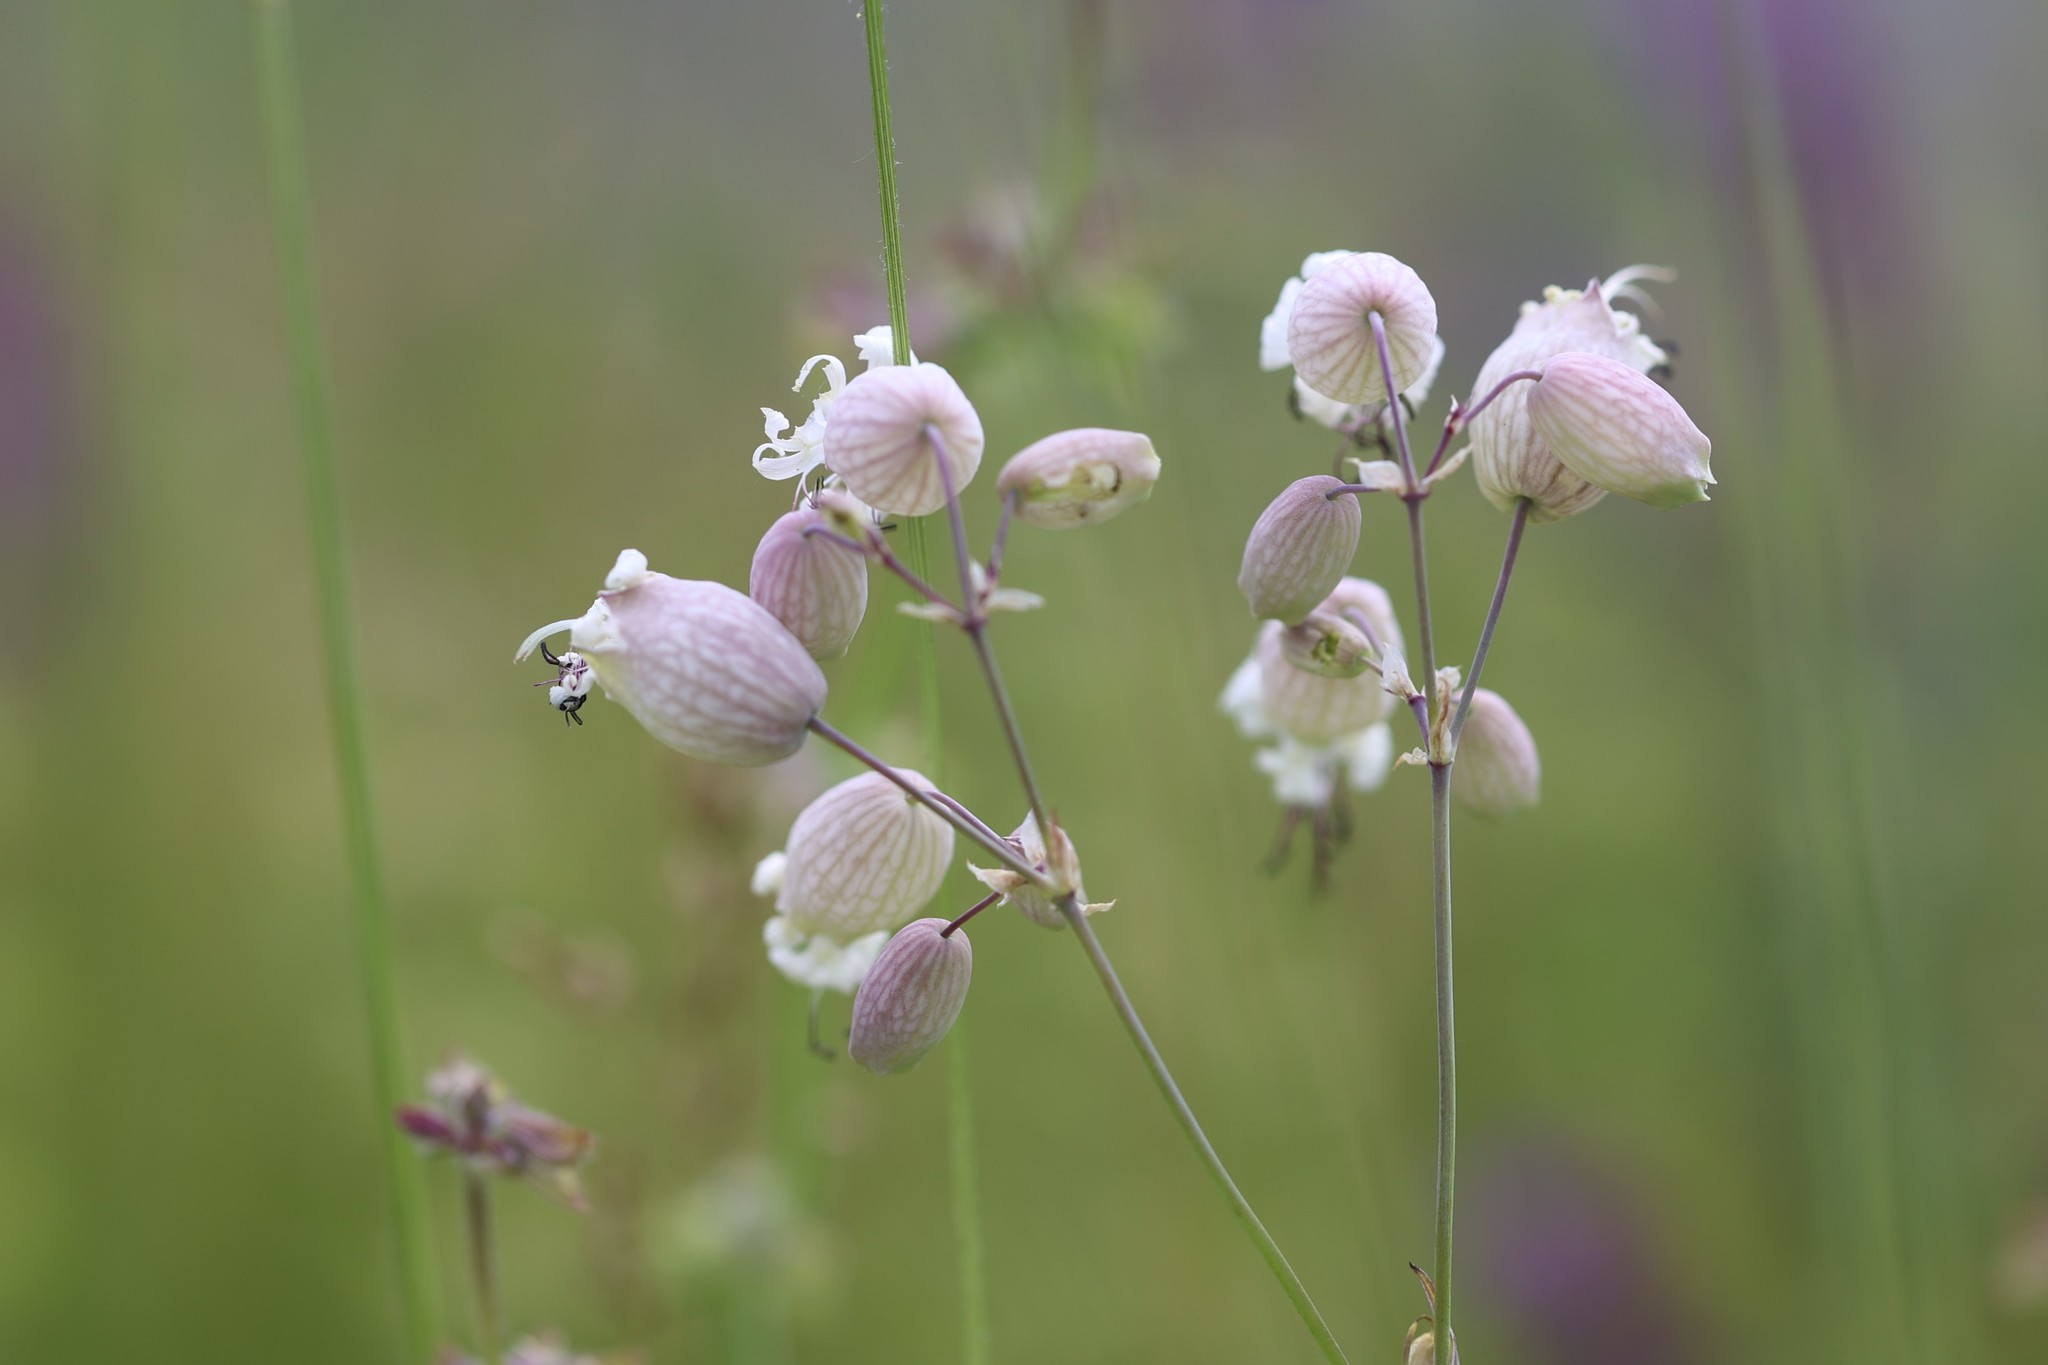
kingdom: Plantae
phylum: Tracheophyta
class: Magnoliopsida
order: Caryophyllales
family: Caryophyllaceae
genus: Silene
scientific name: Silene vulgaris
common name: Bladder campion
